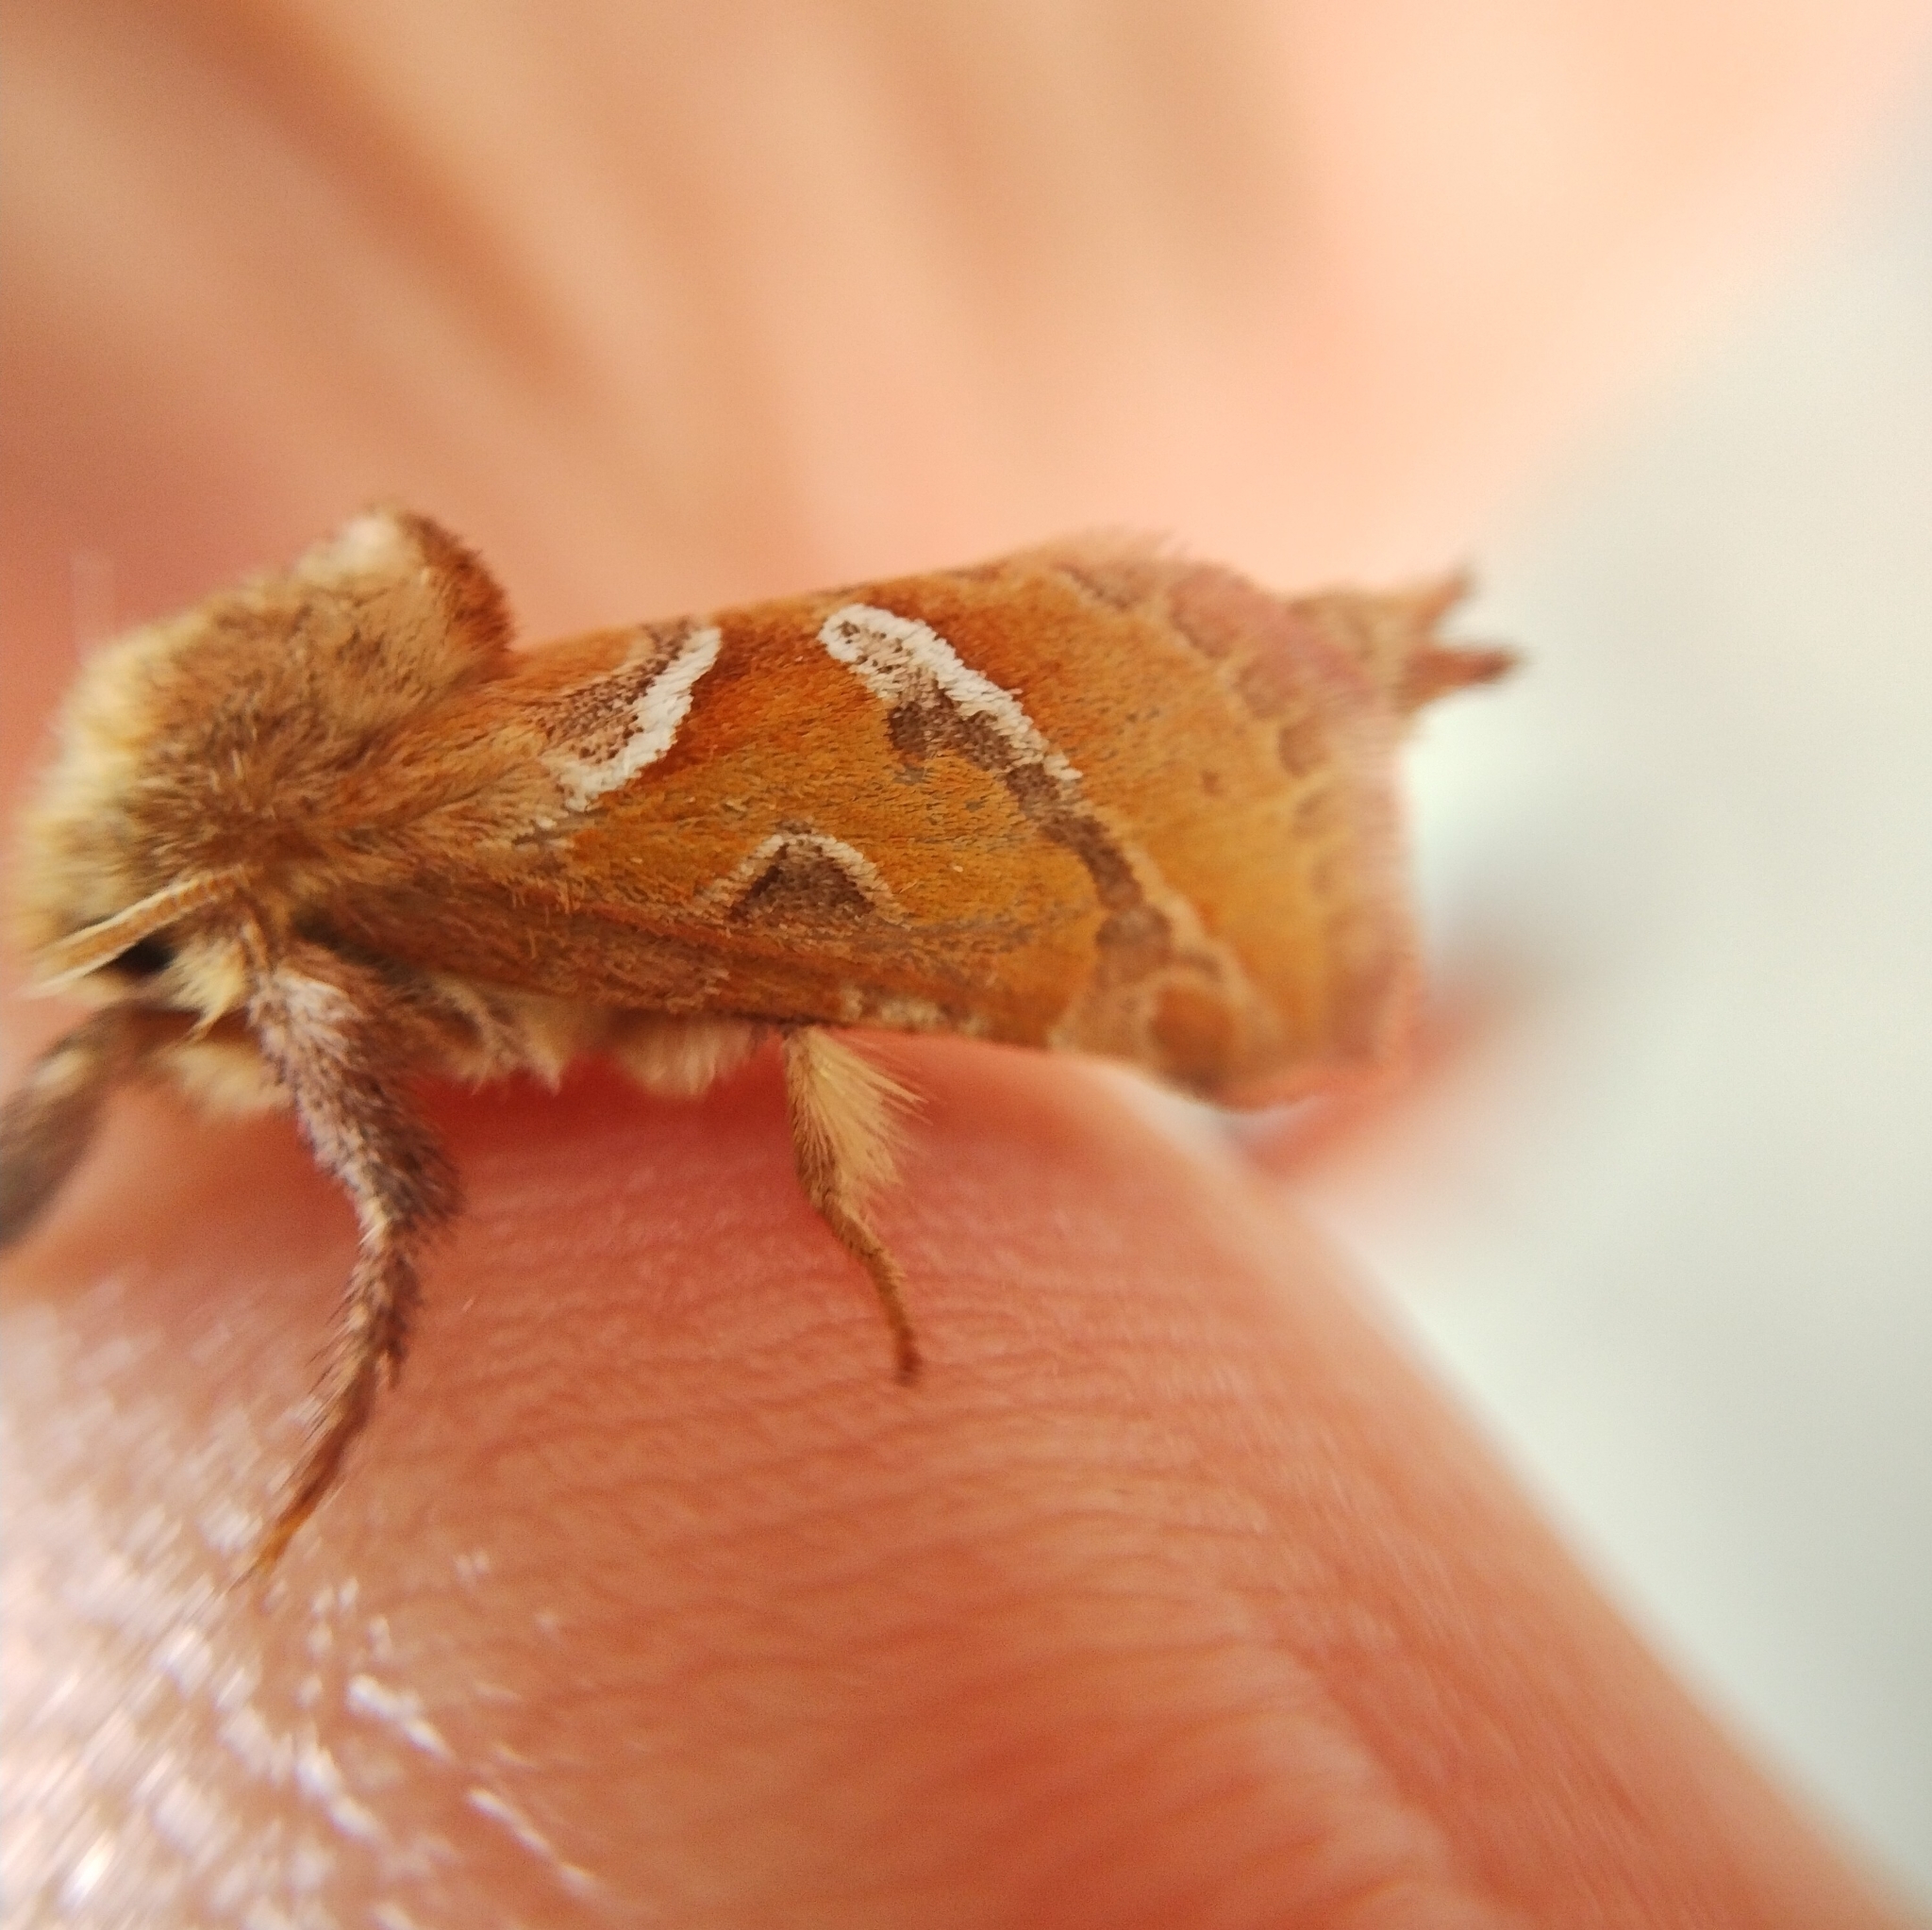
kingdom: Animalia
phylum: Arthropoda
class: Insecta
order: Lepidoptera
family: Hepialidae
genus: Triodia
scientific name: Triodia sylvina
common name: Orange swift
